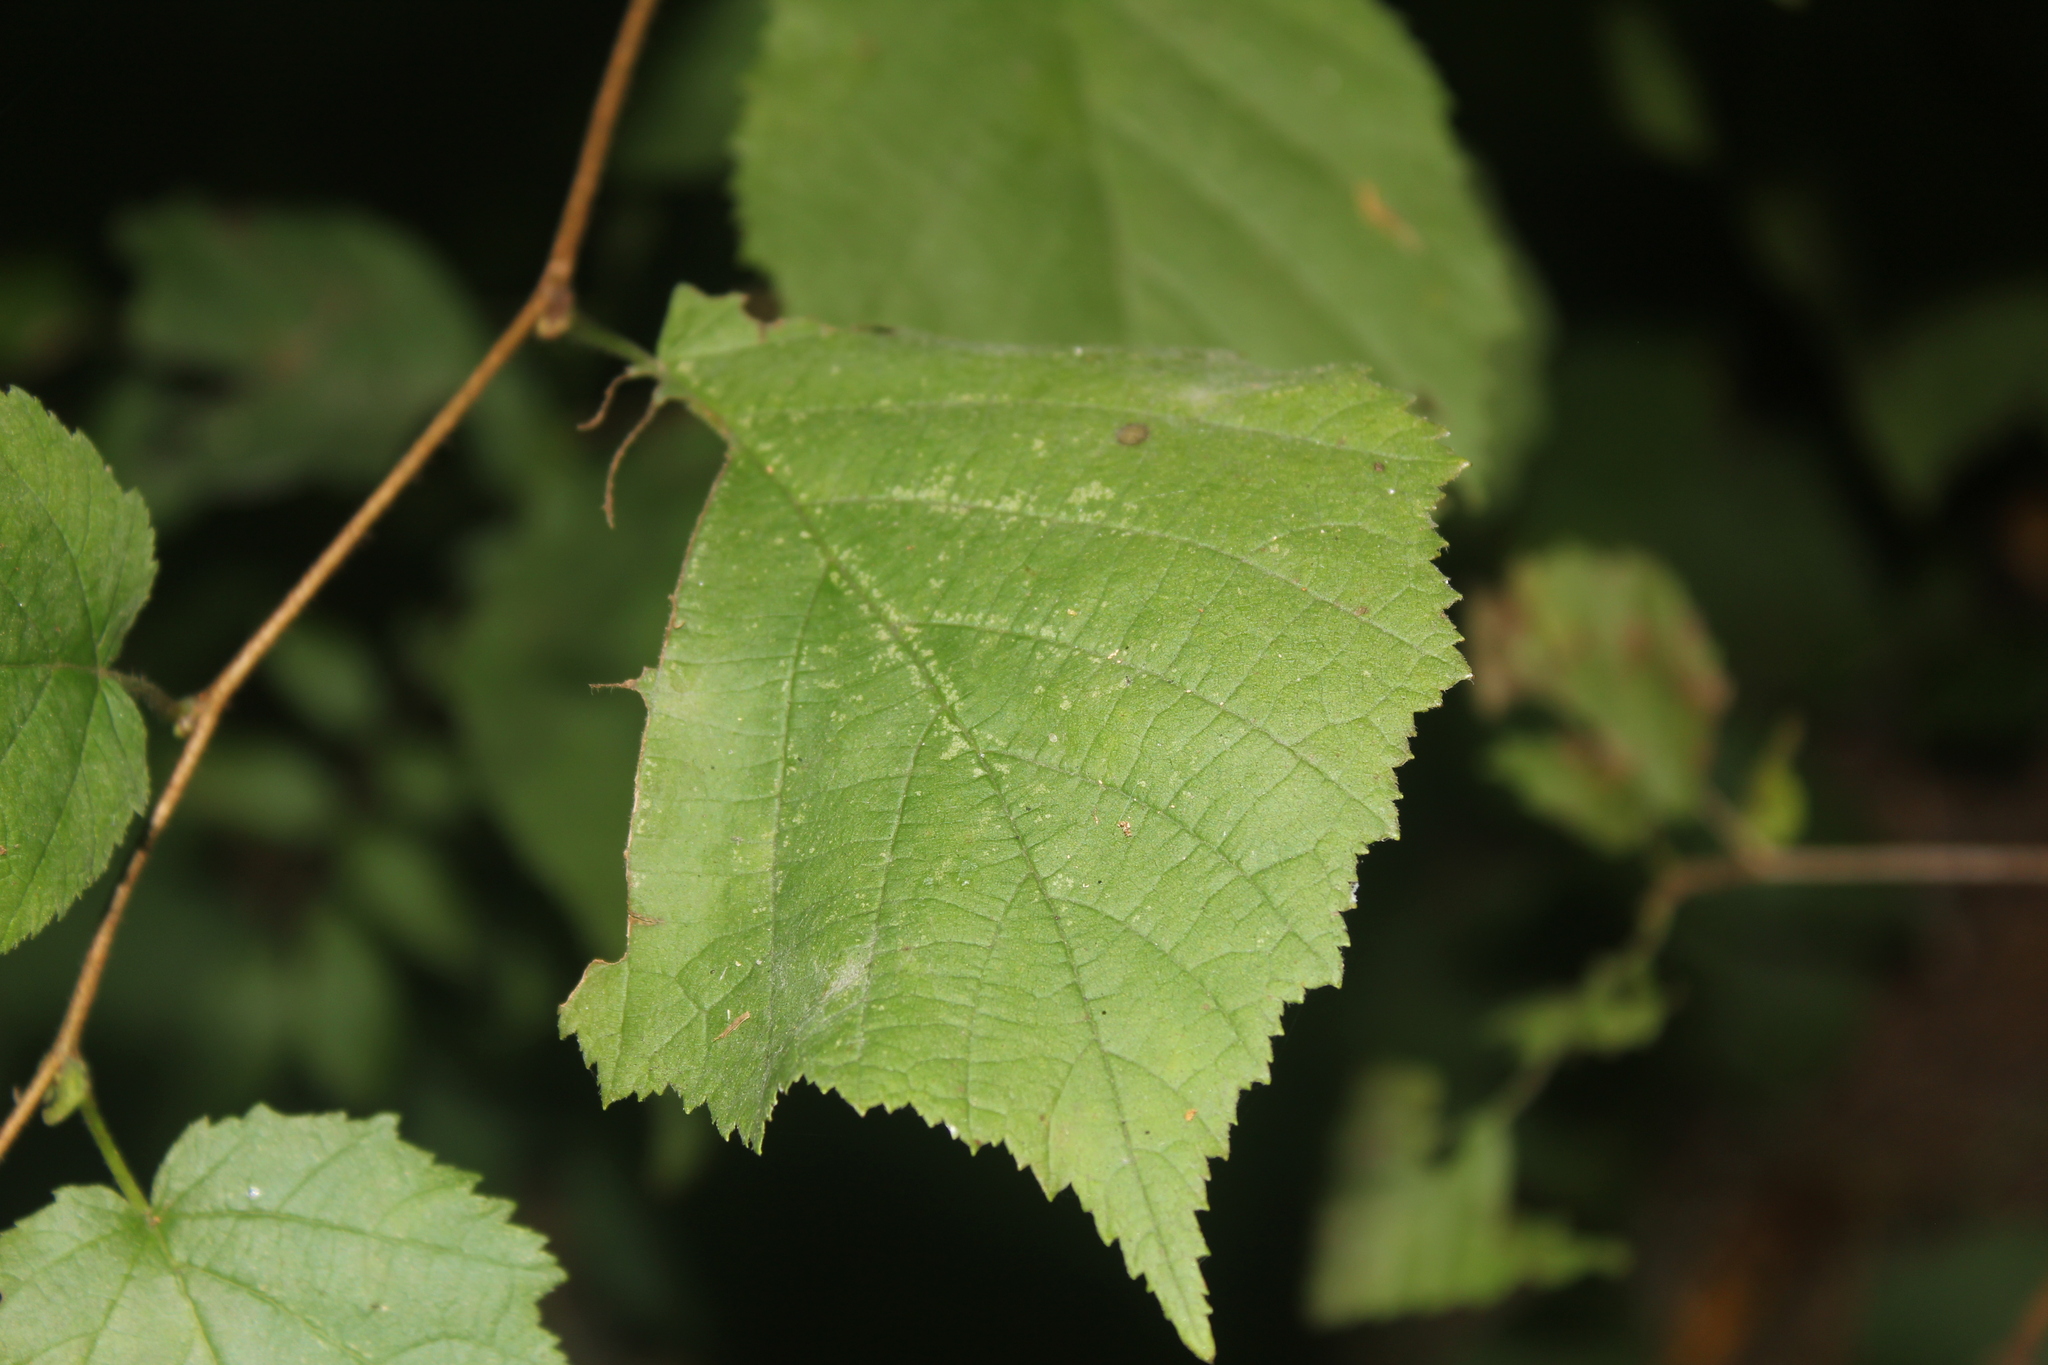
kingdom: Fungi
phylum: Ascomycota
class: Leotiomycetes
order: Helotiales
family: Erysiphaceae
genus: Erysiphe
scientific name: Erysiphe cornutae
